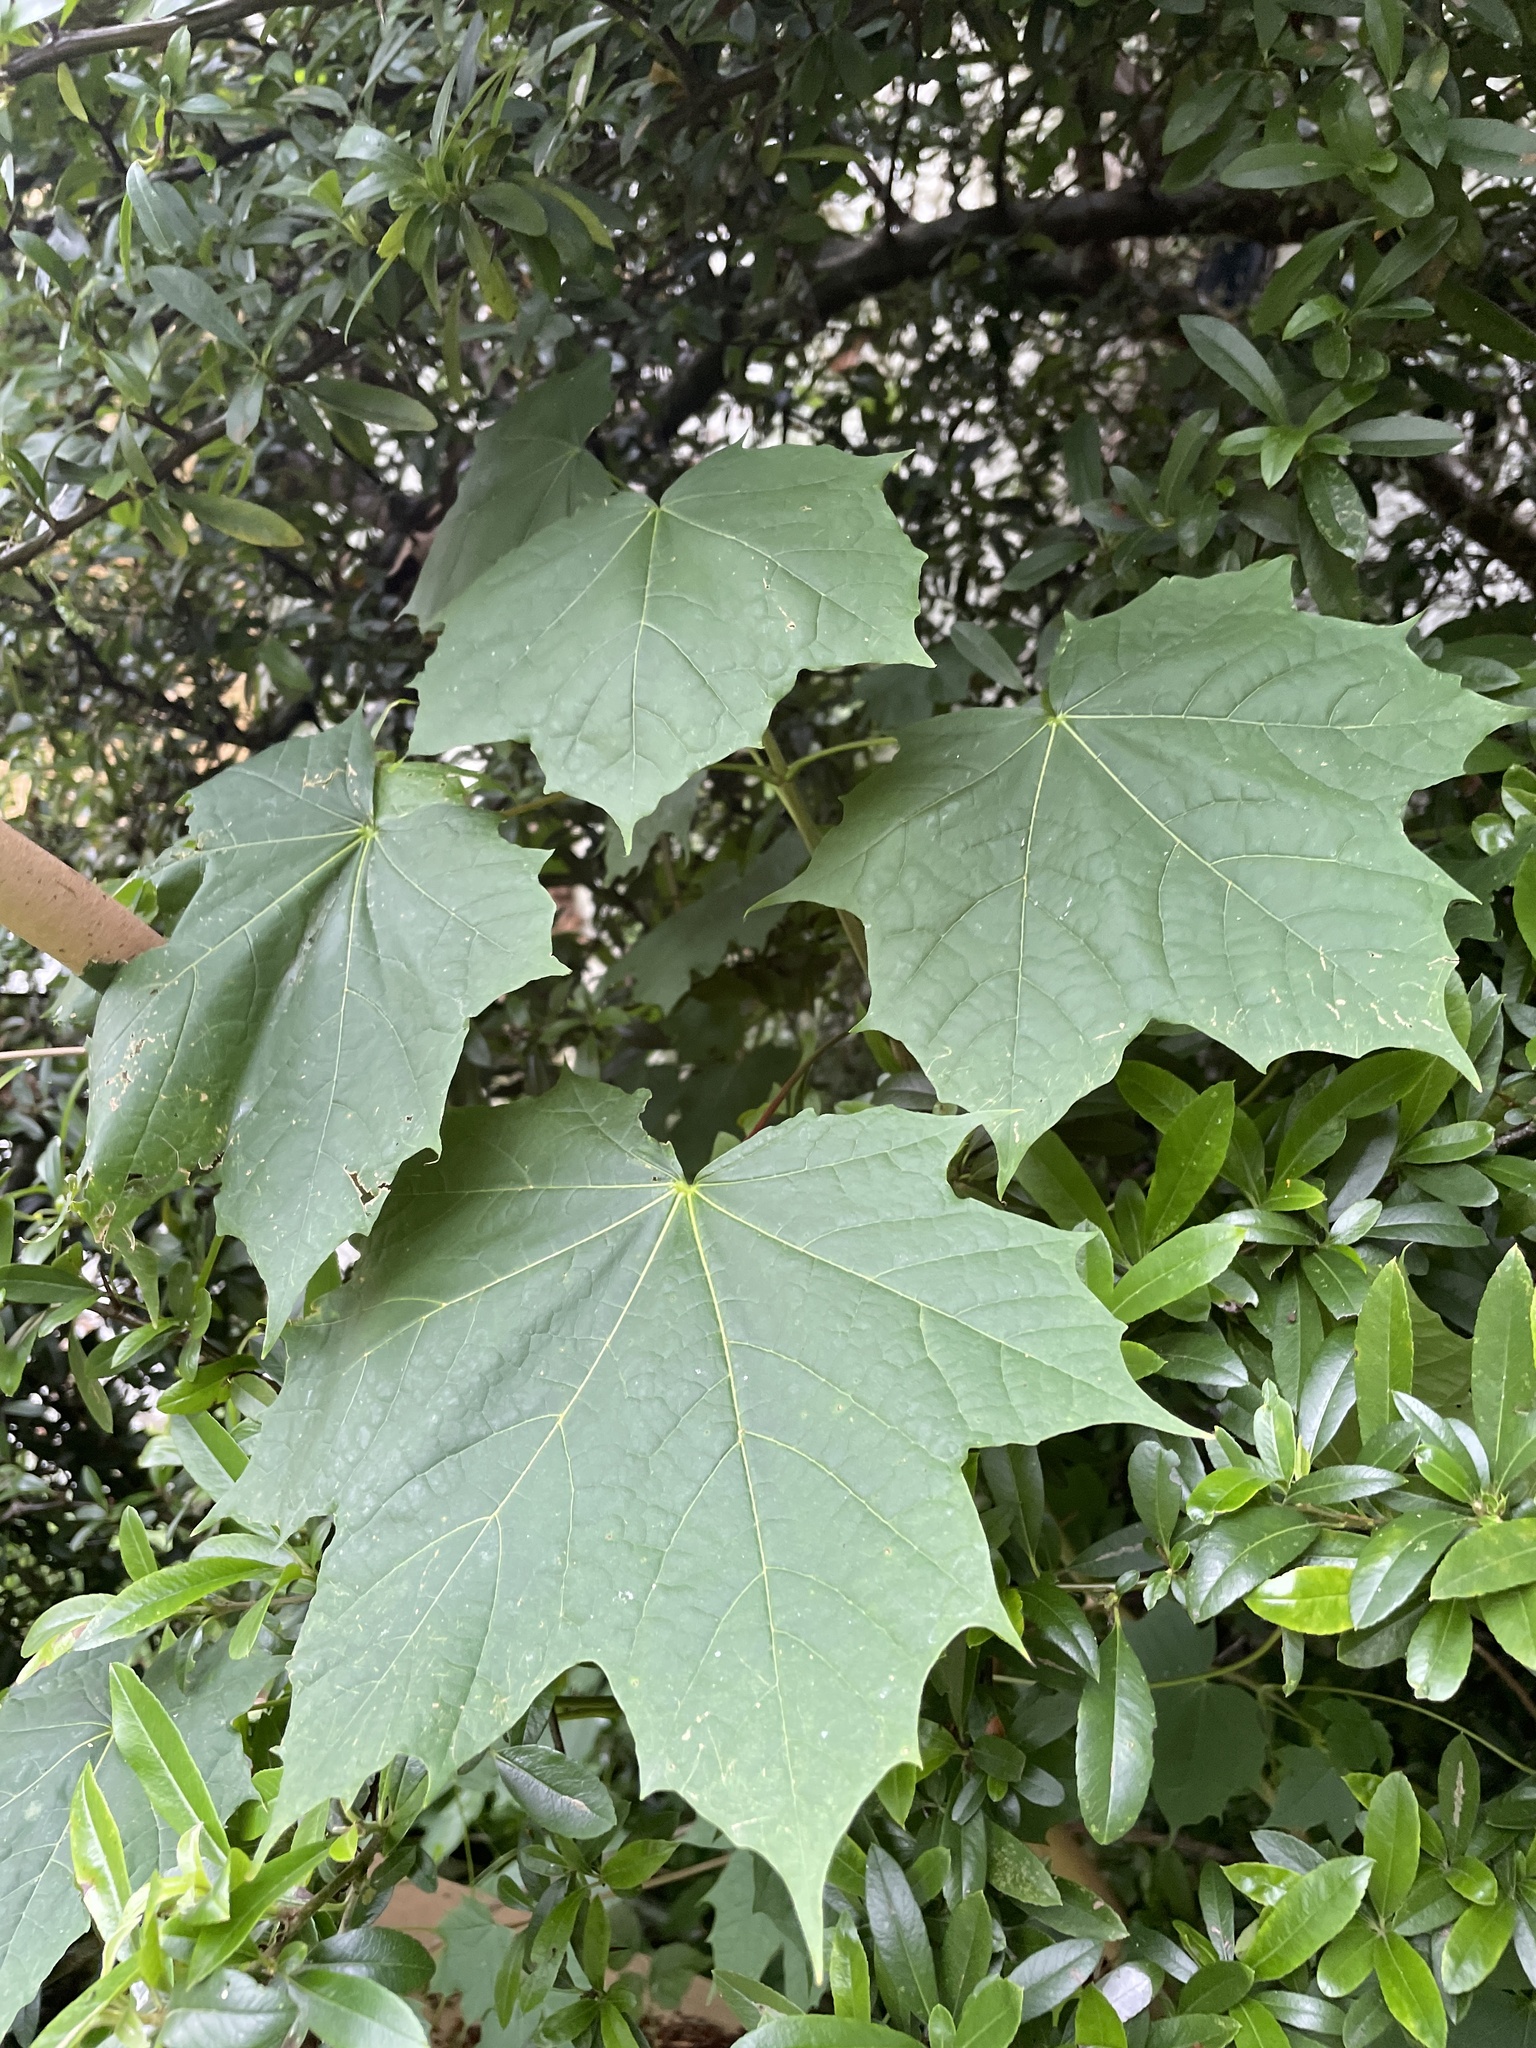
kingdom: Plantae
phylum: Tracheophyta
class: Magnoliopsida
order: Sapindales
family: Sapindaceae
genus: Acer
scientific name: Acer platanoides
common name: Norway maple
